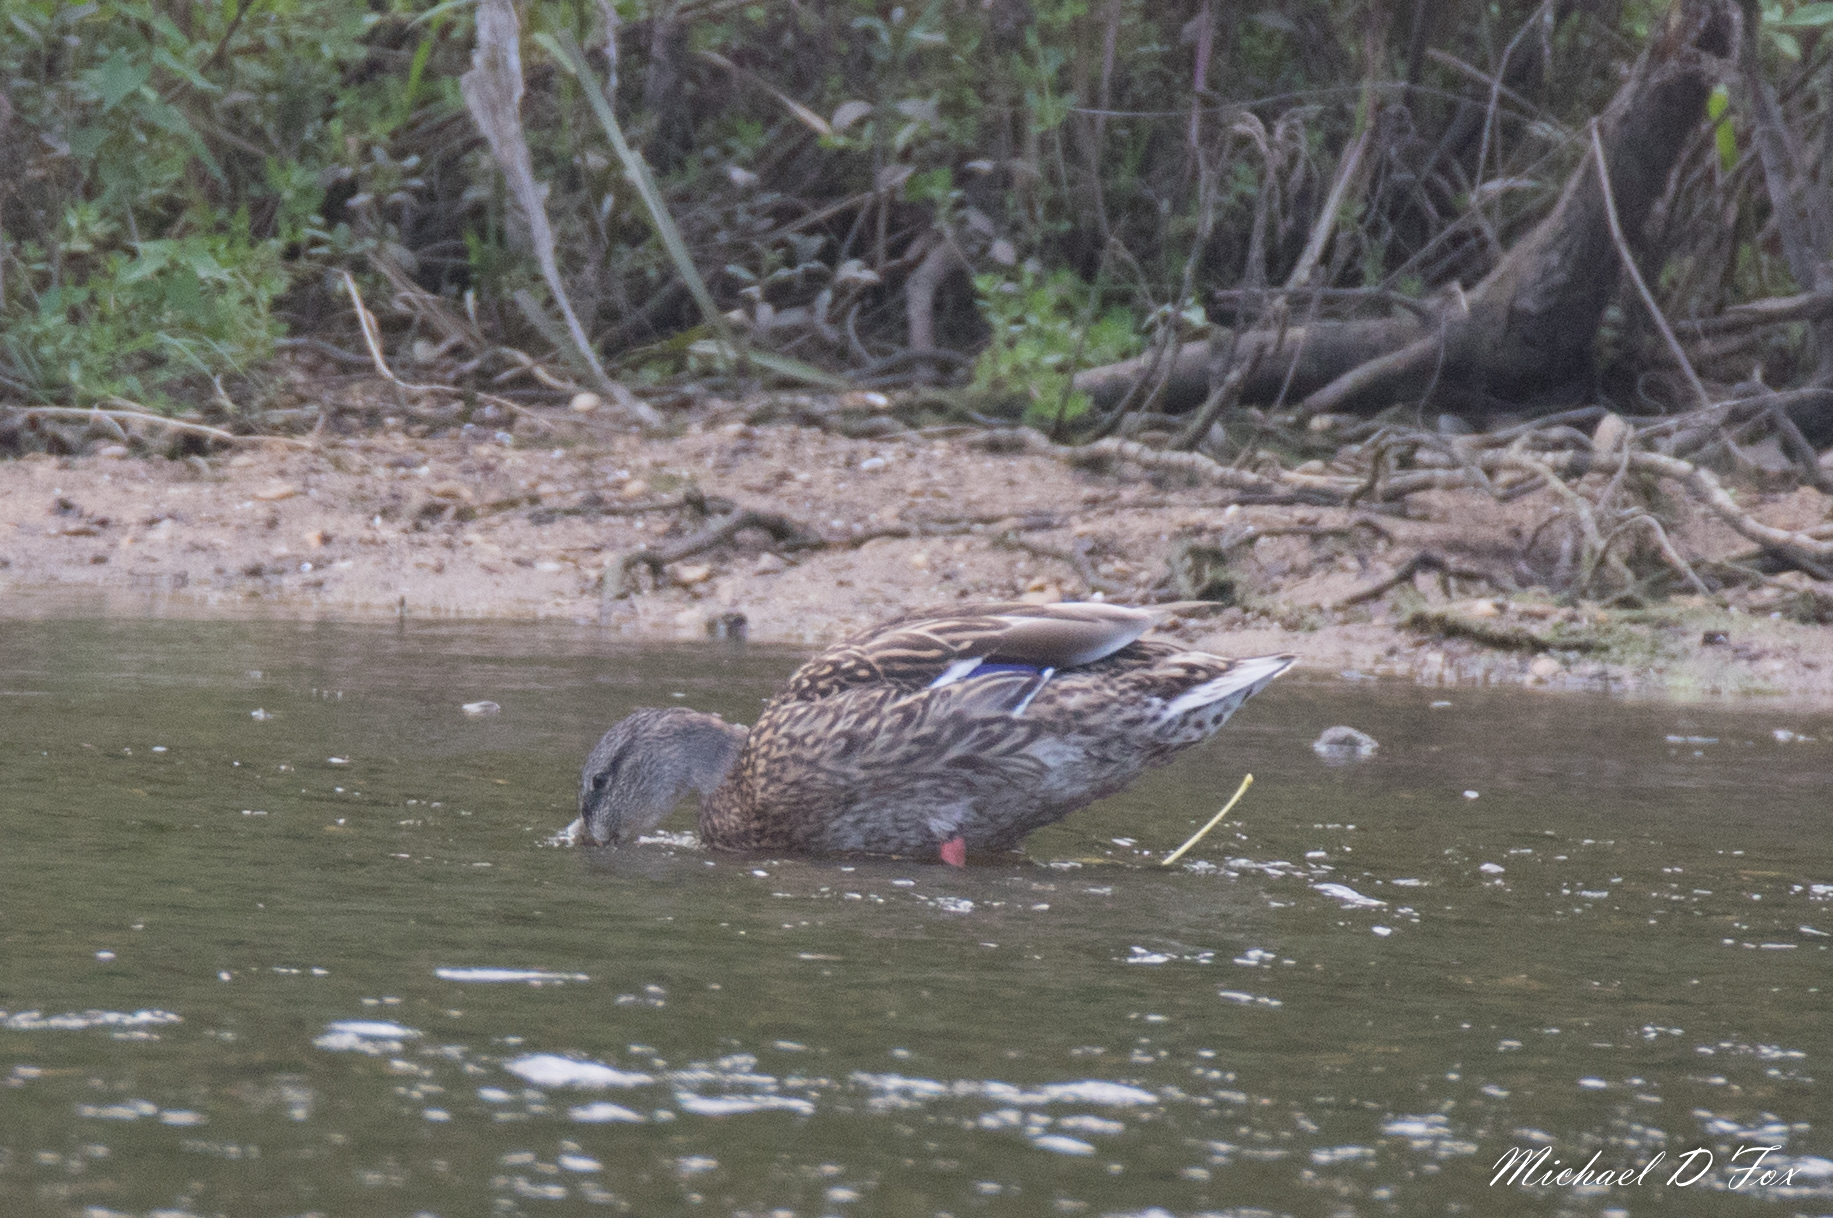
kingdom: Animalia
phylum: Chordata
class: Aves
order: Anseriformes
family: Anatidae
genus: Anas
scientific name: Anas platyrhynchos
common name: Mallard
